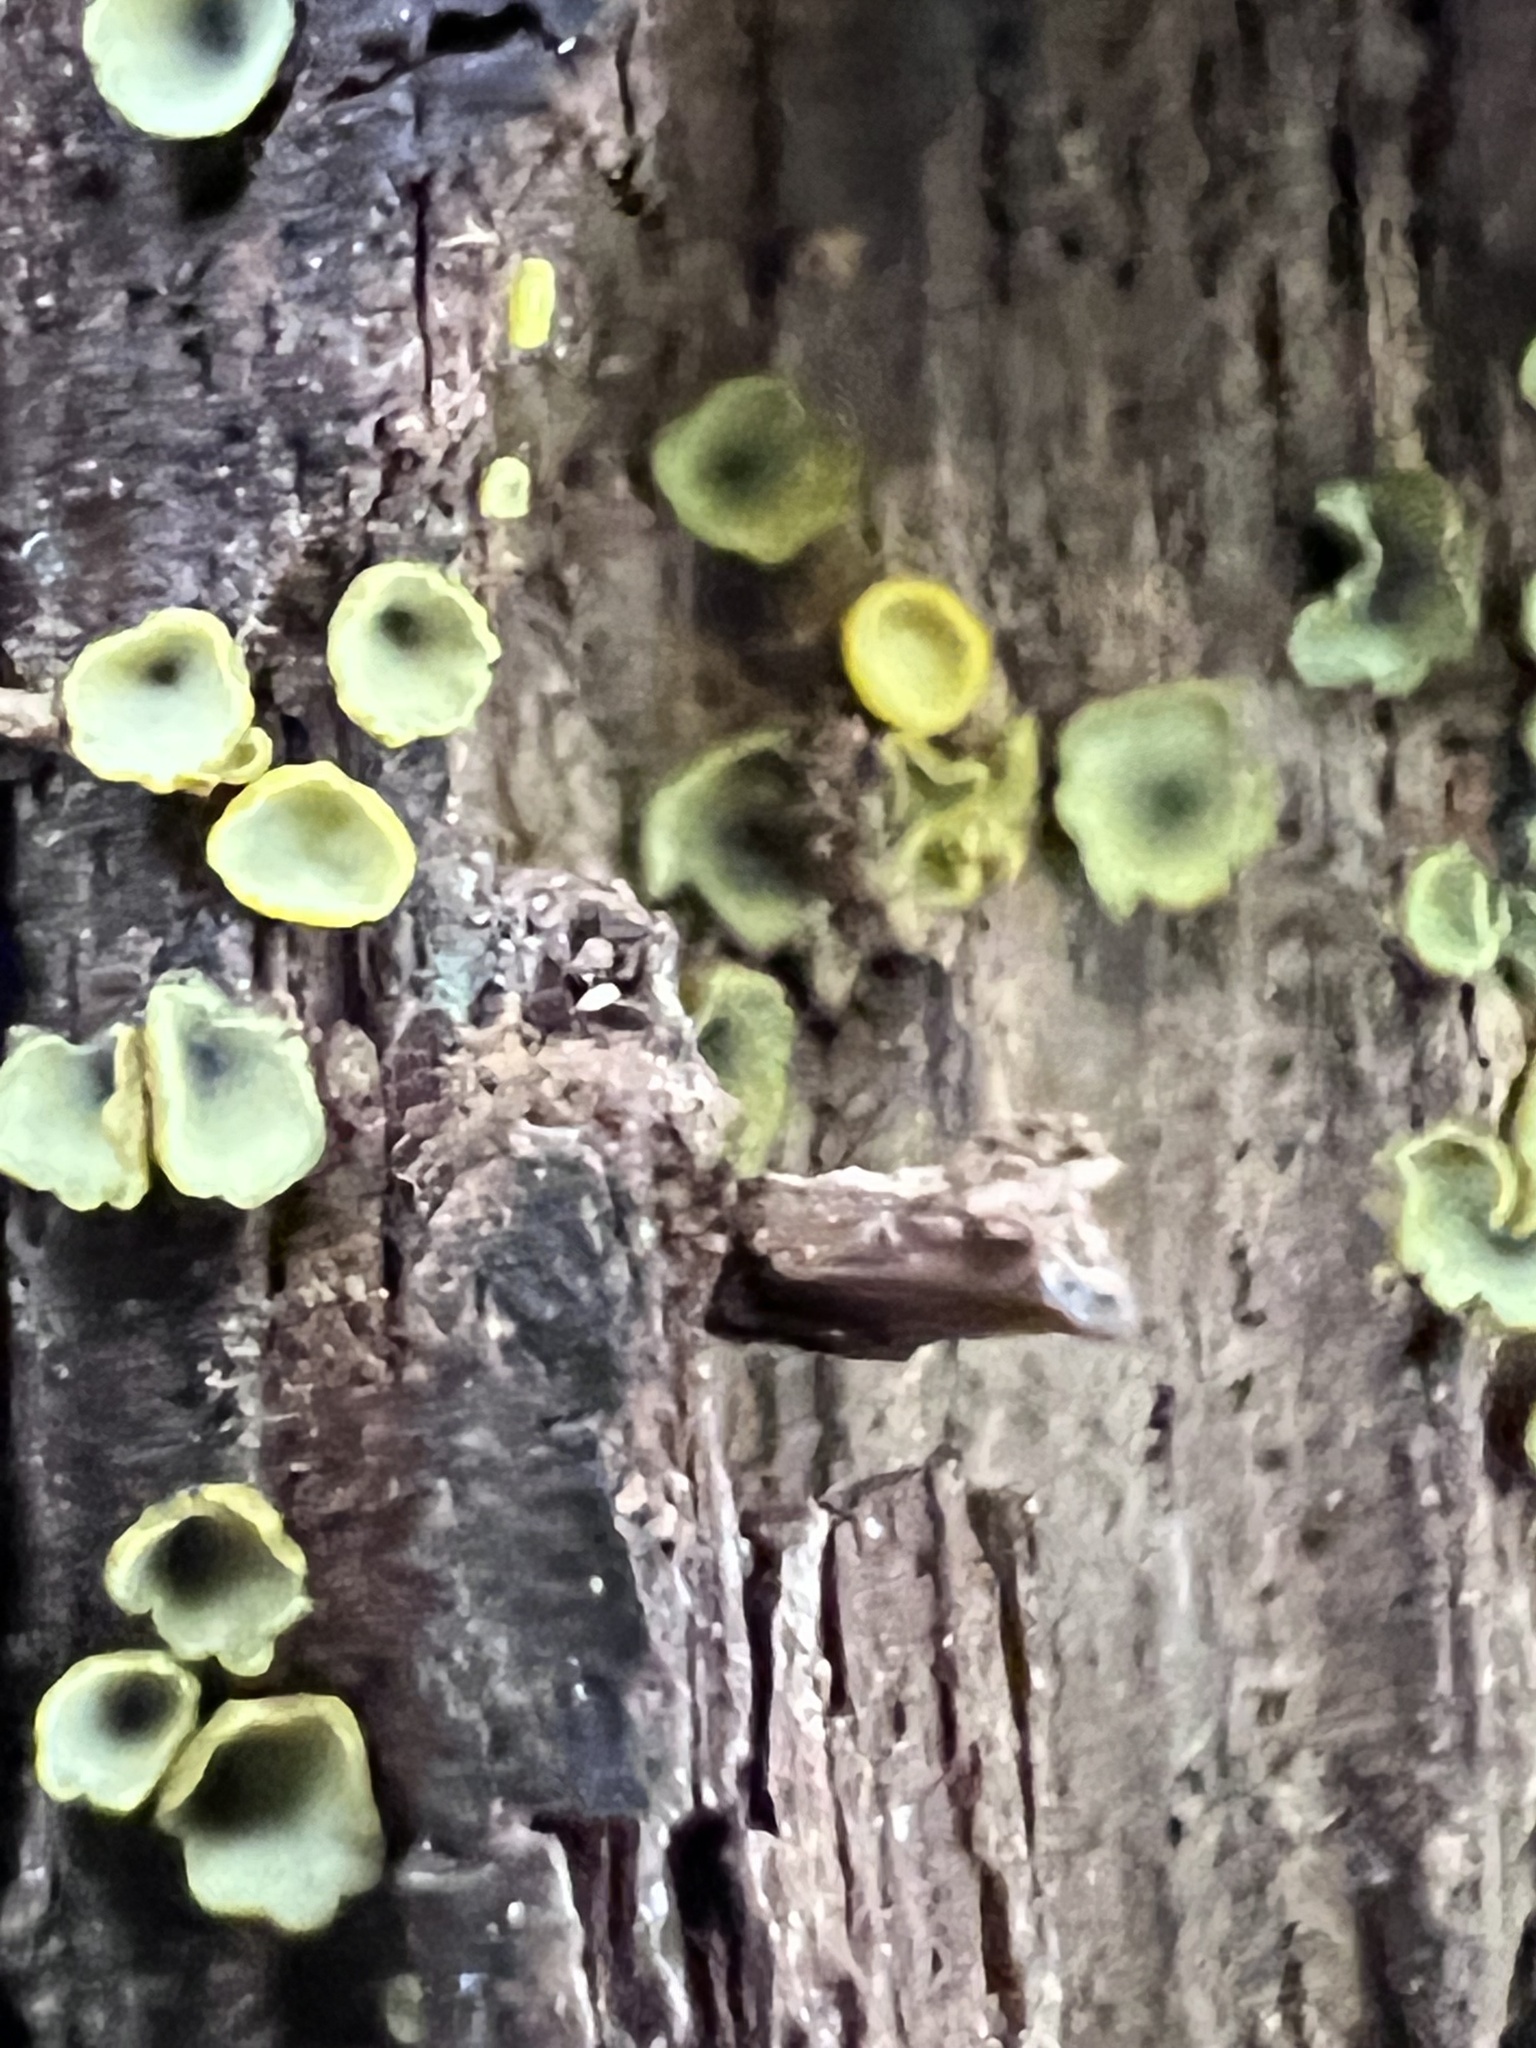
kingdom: Fungi
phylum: Ascomycota
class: Leotiomycetes
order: Helotiales
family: Chlorospleniaceae
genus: Chlorosplenium
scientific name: Chlorosplenium chlora
